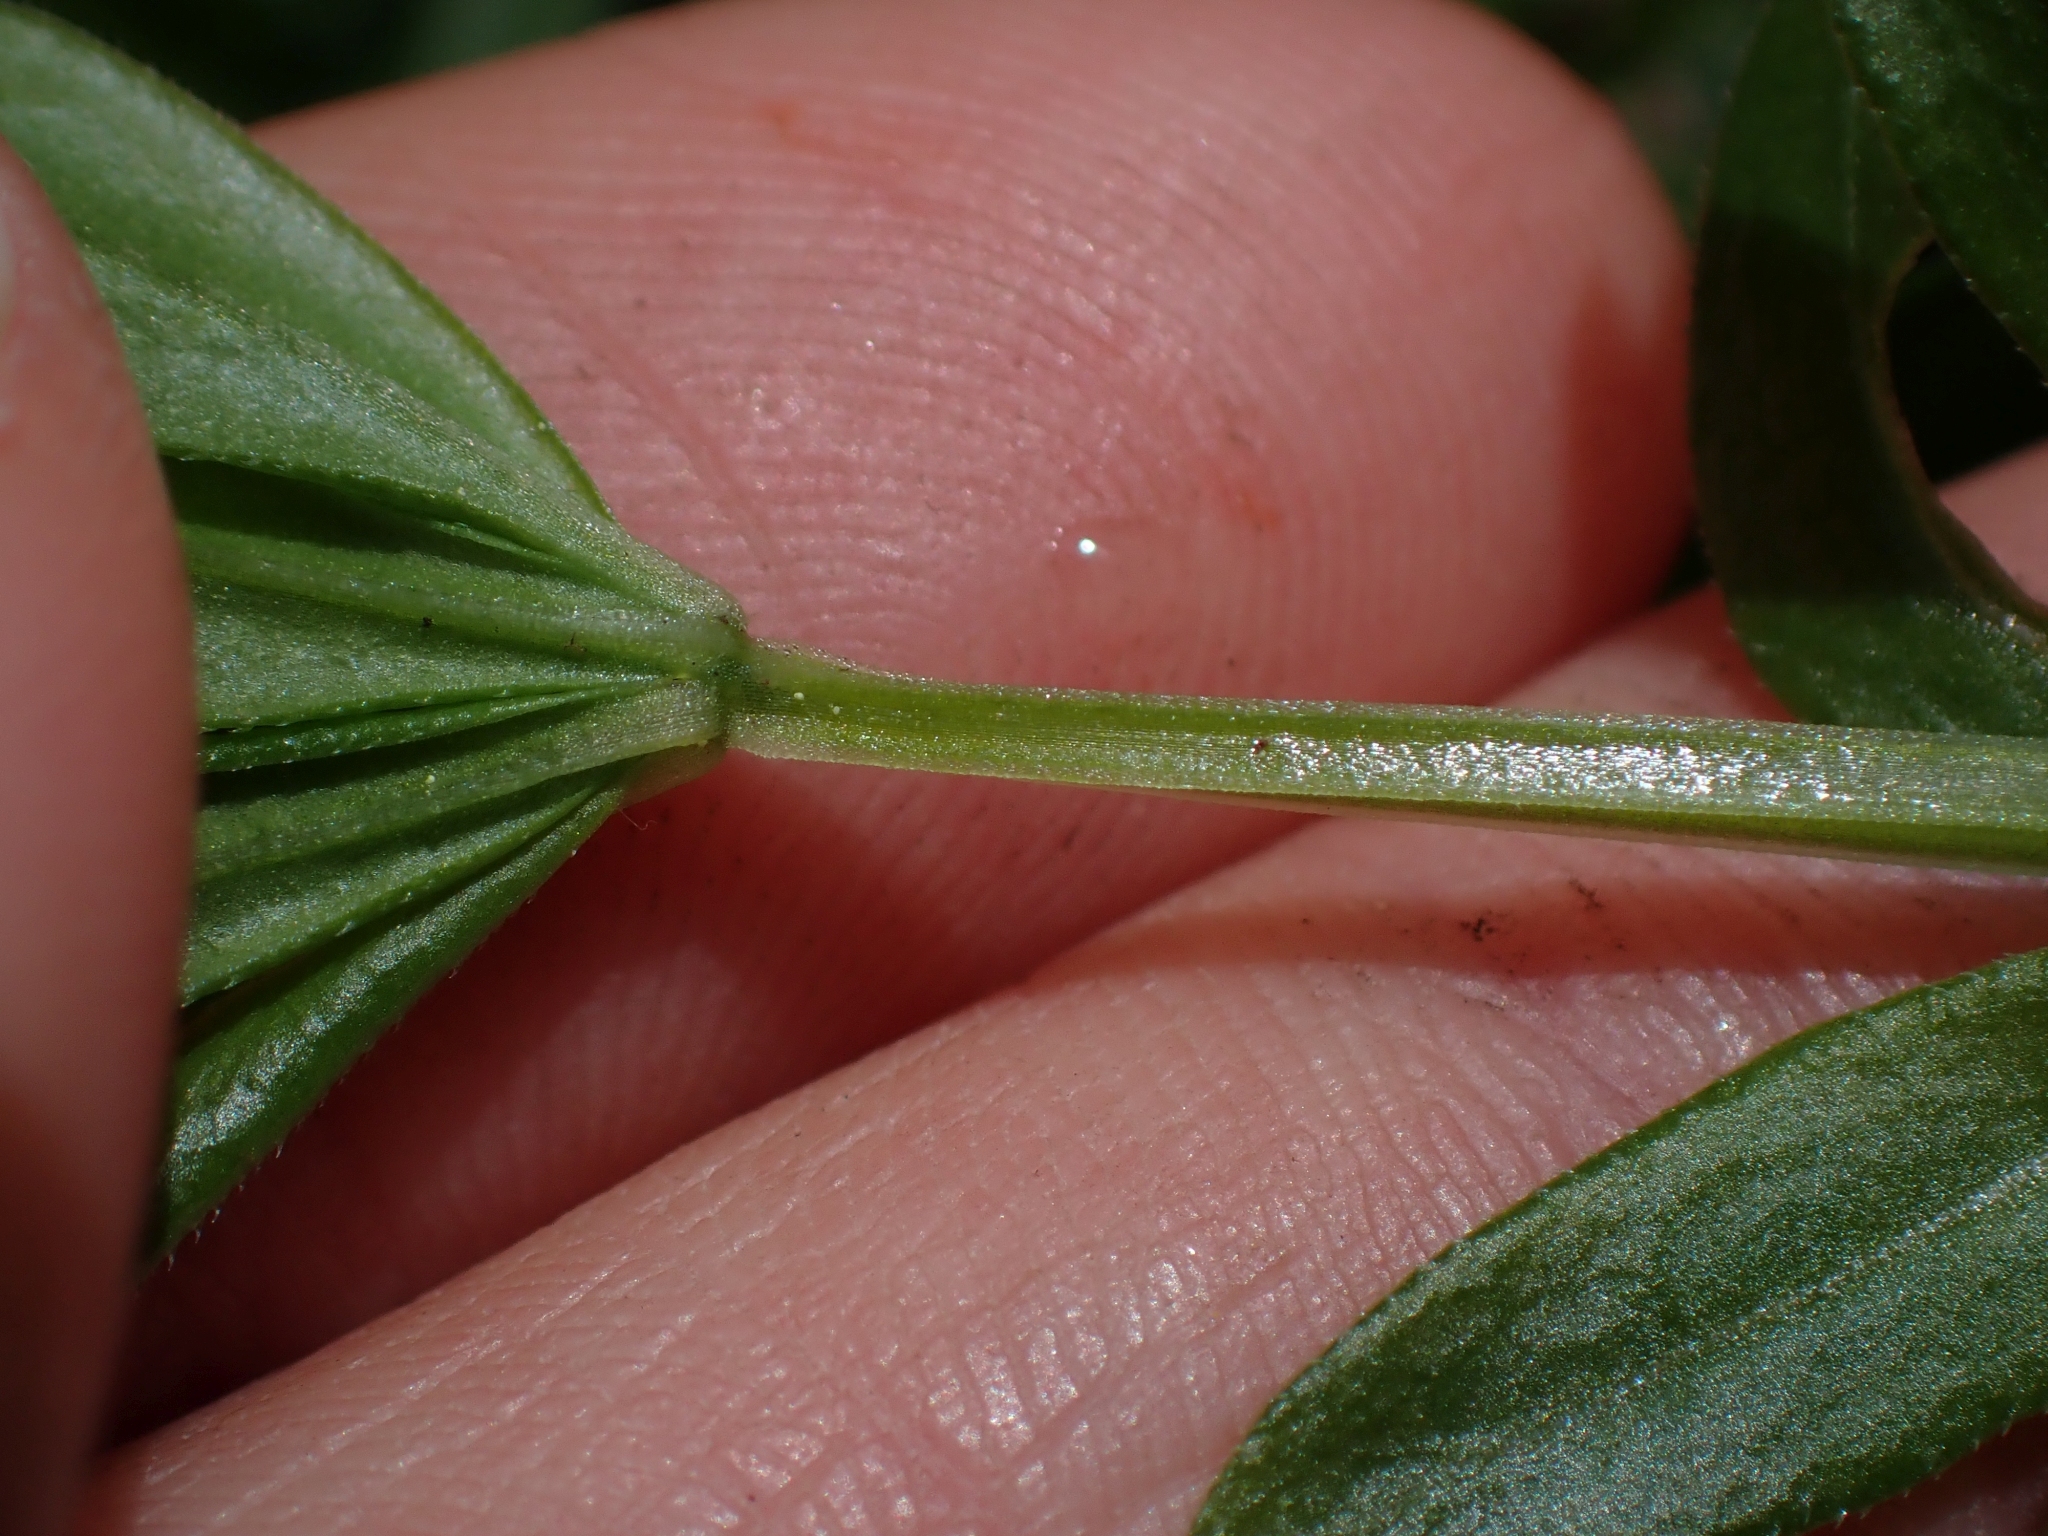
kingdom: Plantae
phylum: Tracheophyta
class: Magnoliopsida
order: Gentianales
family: Rubiaceae
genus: Galium
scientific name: Galium triflorum
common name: Fragrant bedstraw
